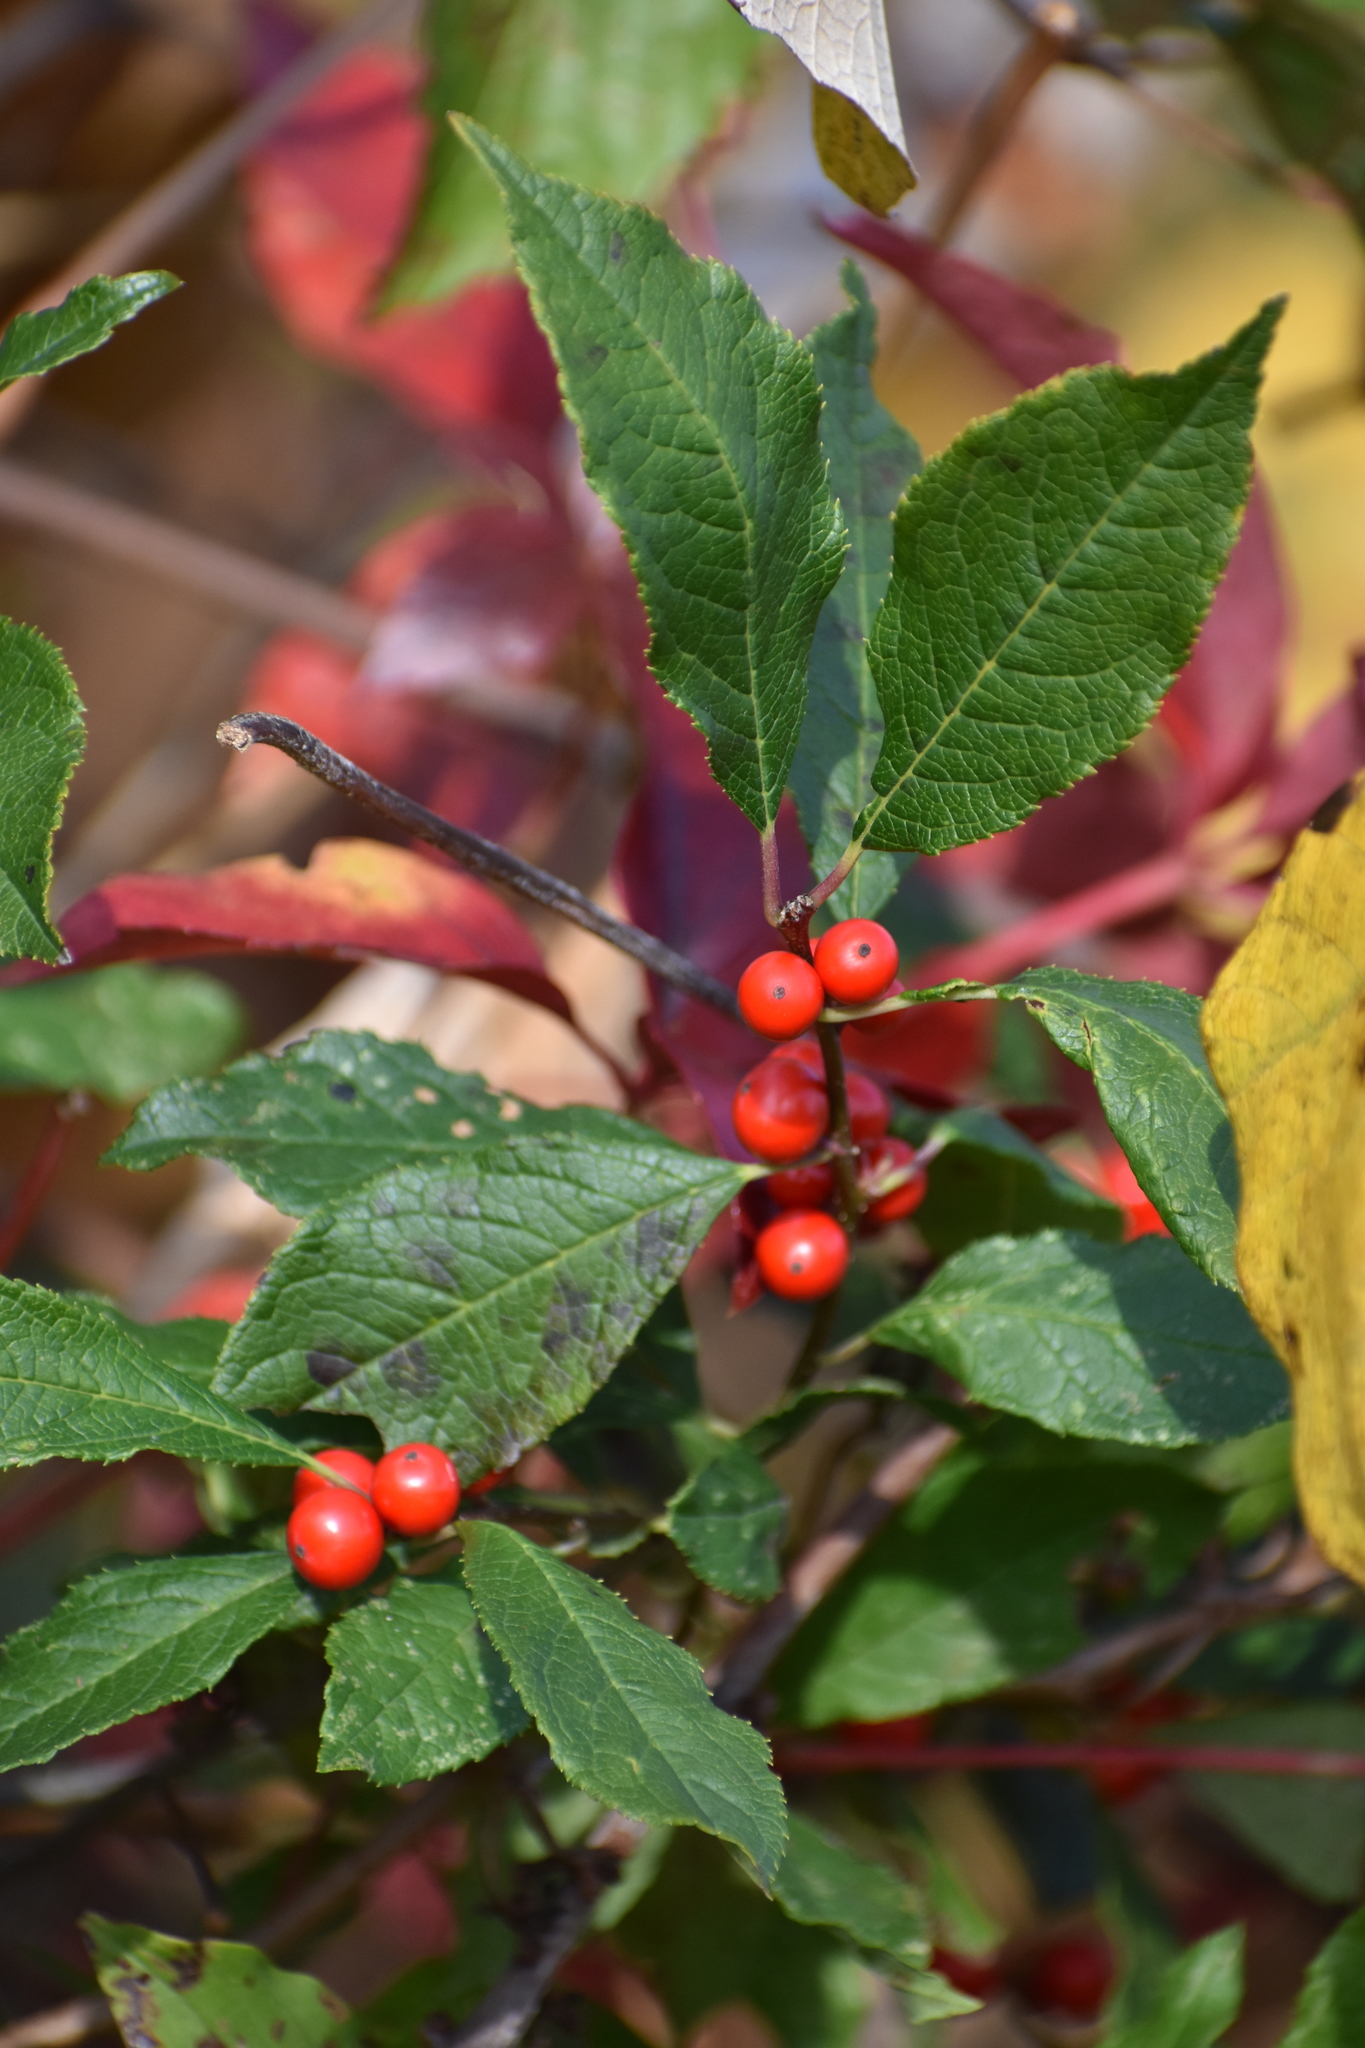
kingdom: Plantae
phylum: Tracheophyta
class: Magnoliopsida
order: Aquifoliales
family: Aquifoliaceae
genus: Ilex
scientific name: Ilex verticillata
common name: Virginia winterberry
